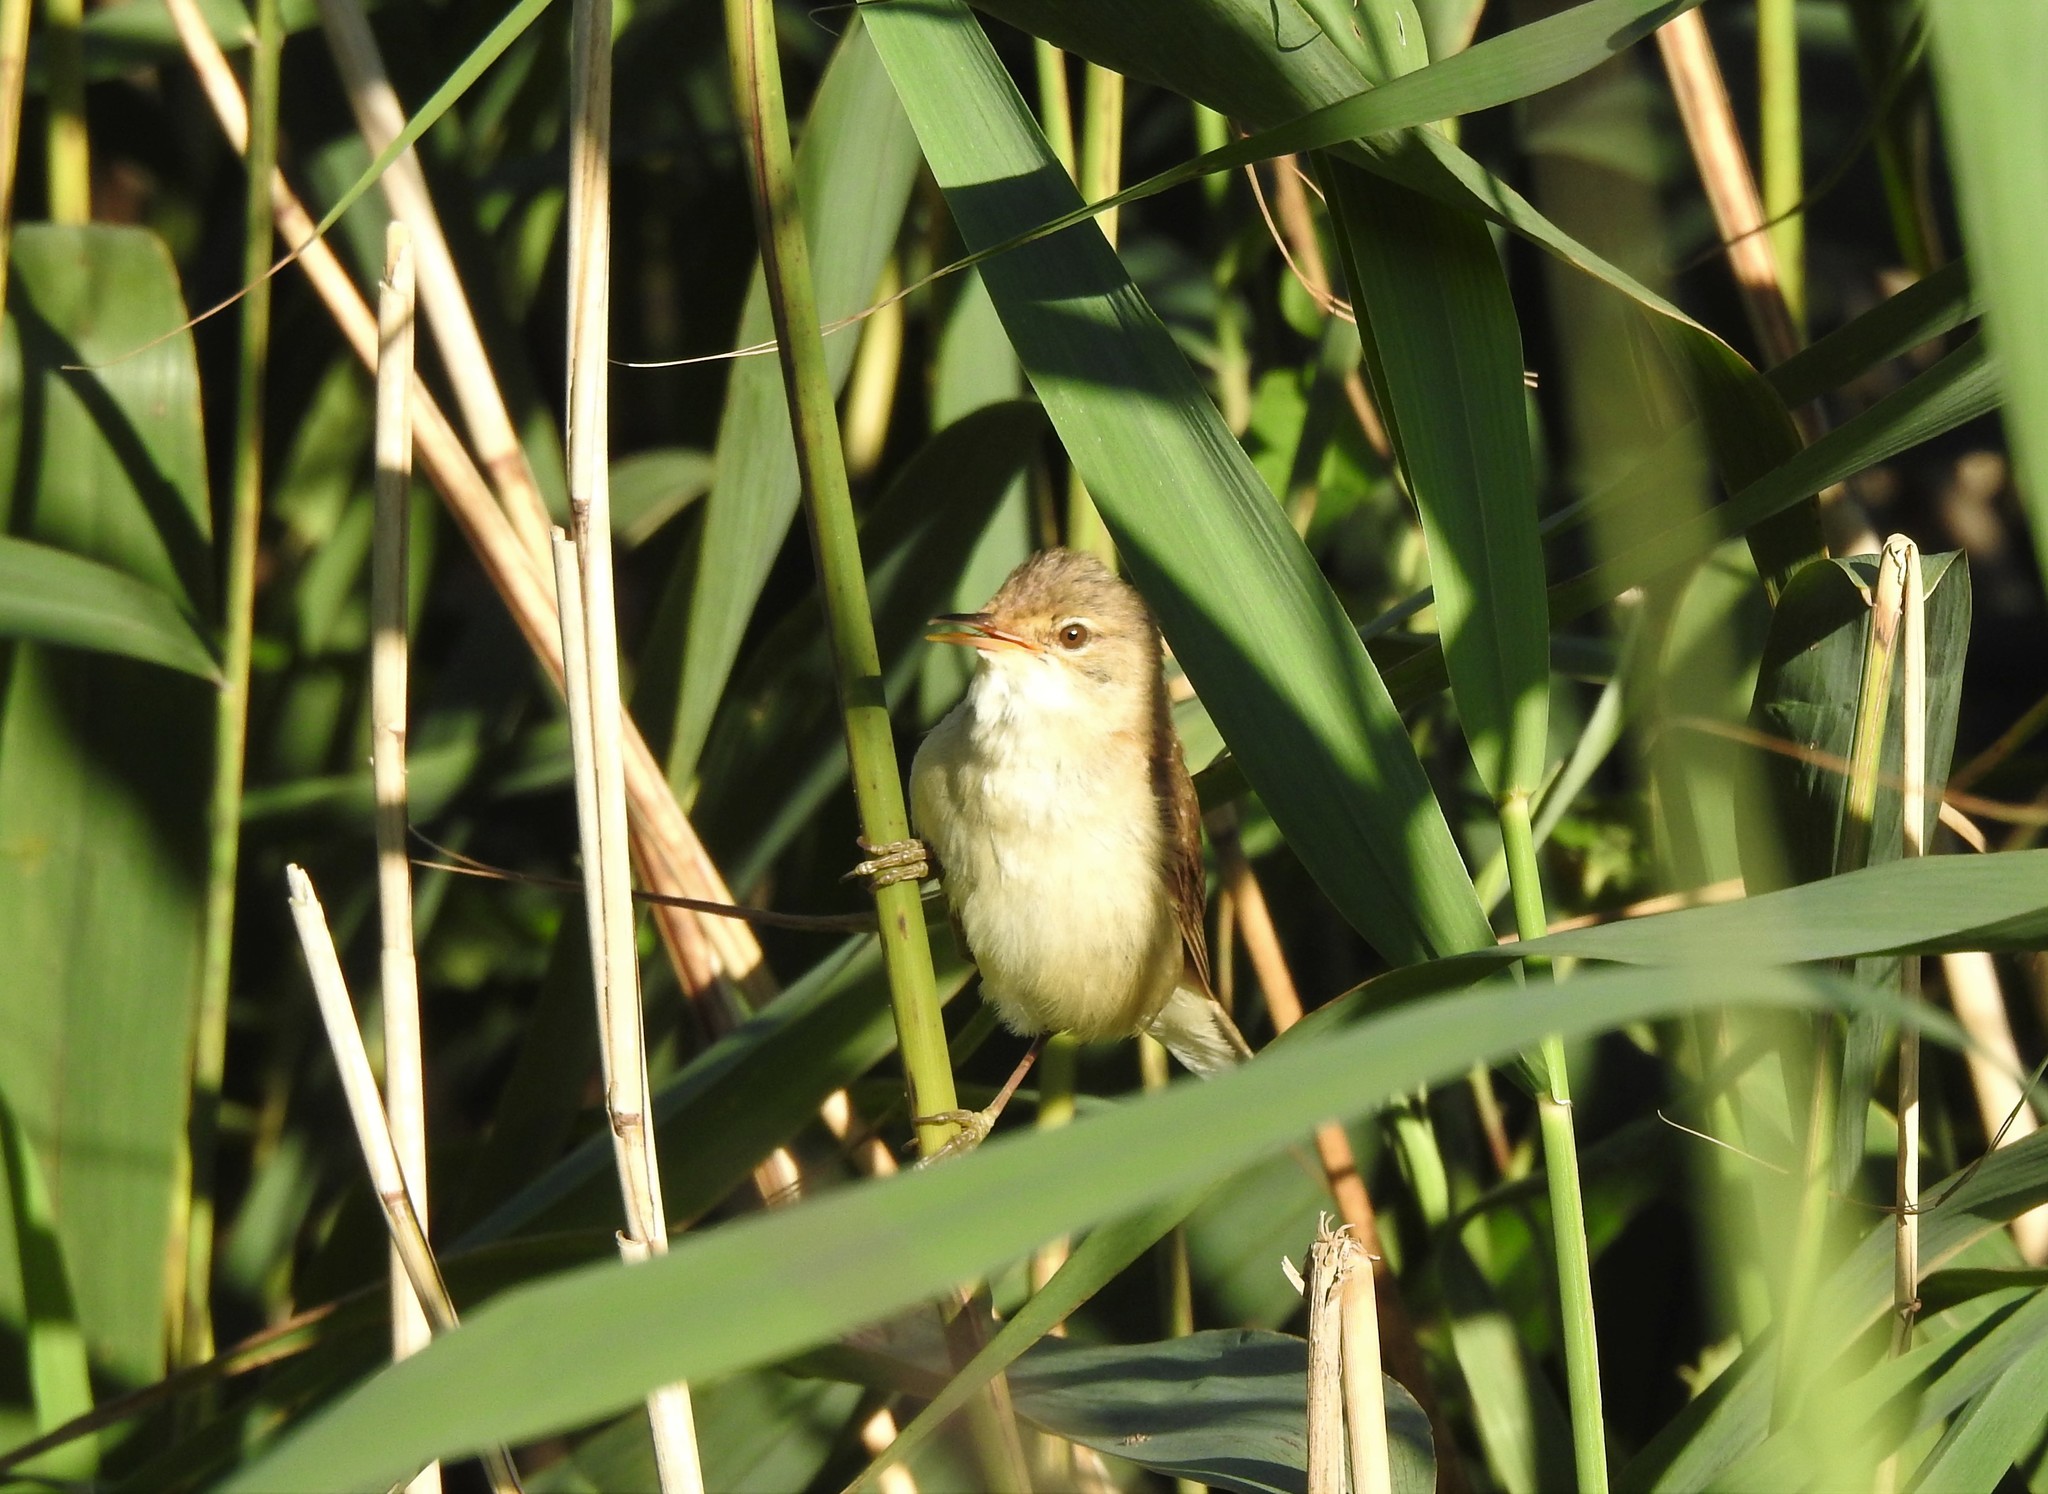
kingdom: Animalia
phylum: Chordata
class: Aves
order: Passeriformes
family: Acrocephalidae
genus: Acrocephalus
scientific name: Acrocephalus scirpaceus
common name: Eurasian reed warbler
